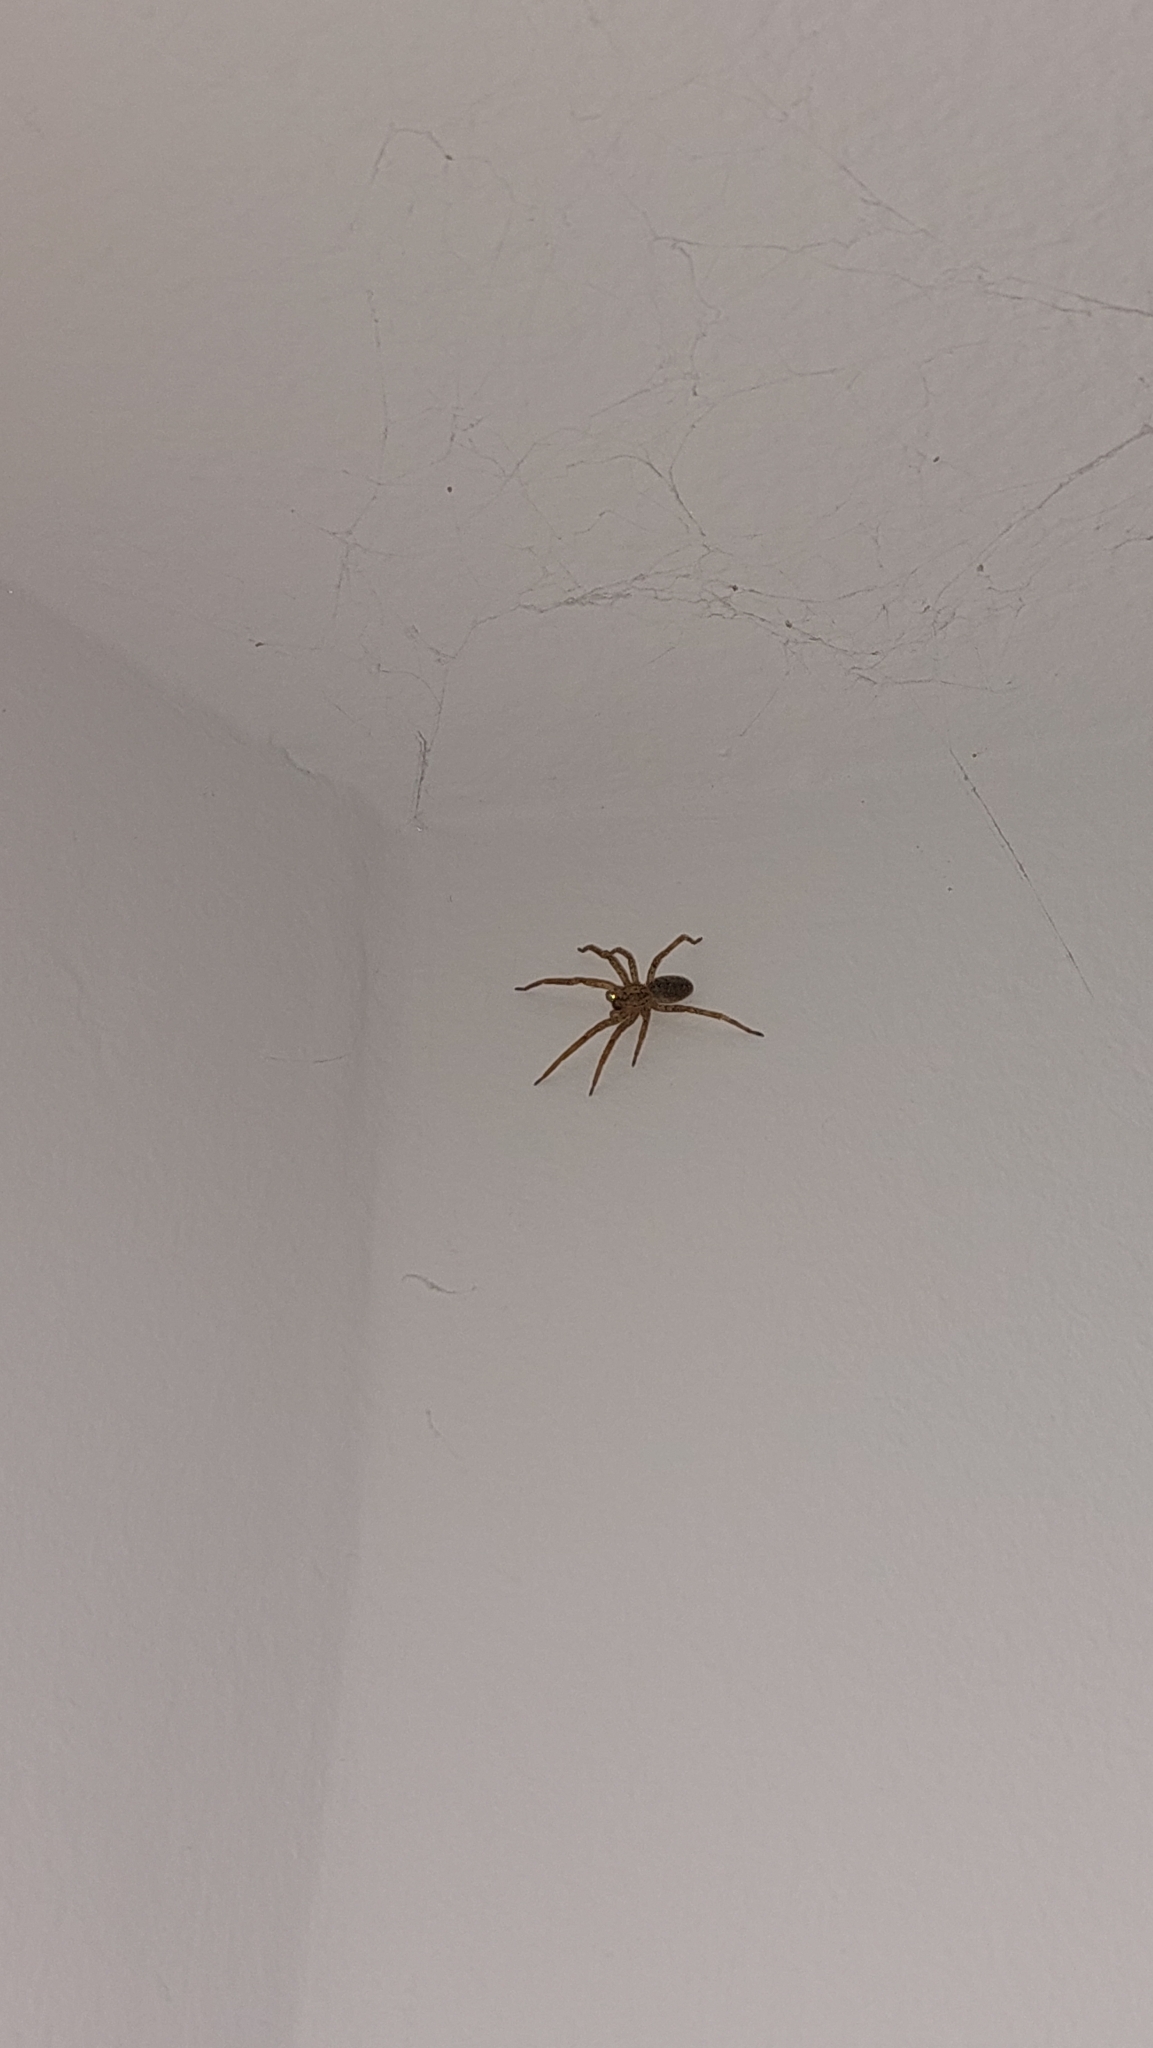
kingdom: Animalia
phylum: Arthropoda
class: Arachnida
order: Araneae
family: Zoropsidae
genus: Zoropsis
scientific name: Zoropsis spinimana
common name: Zoropsid spider
